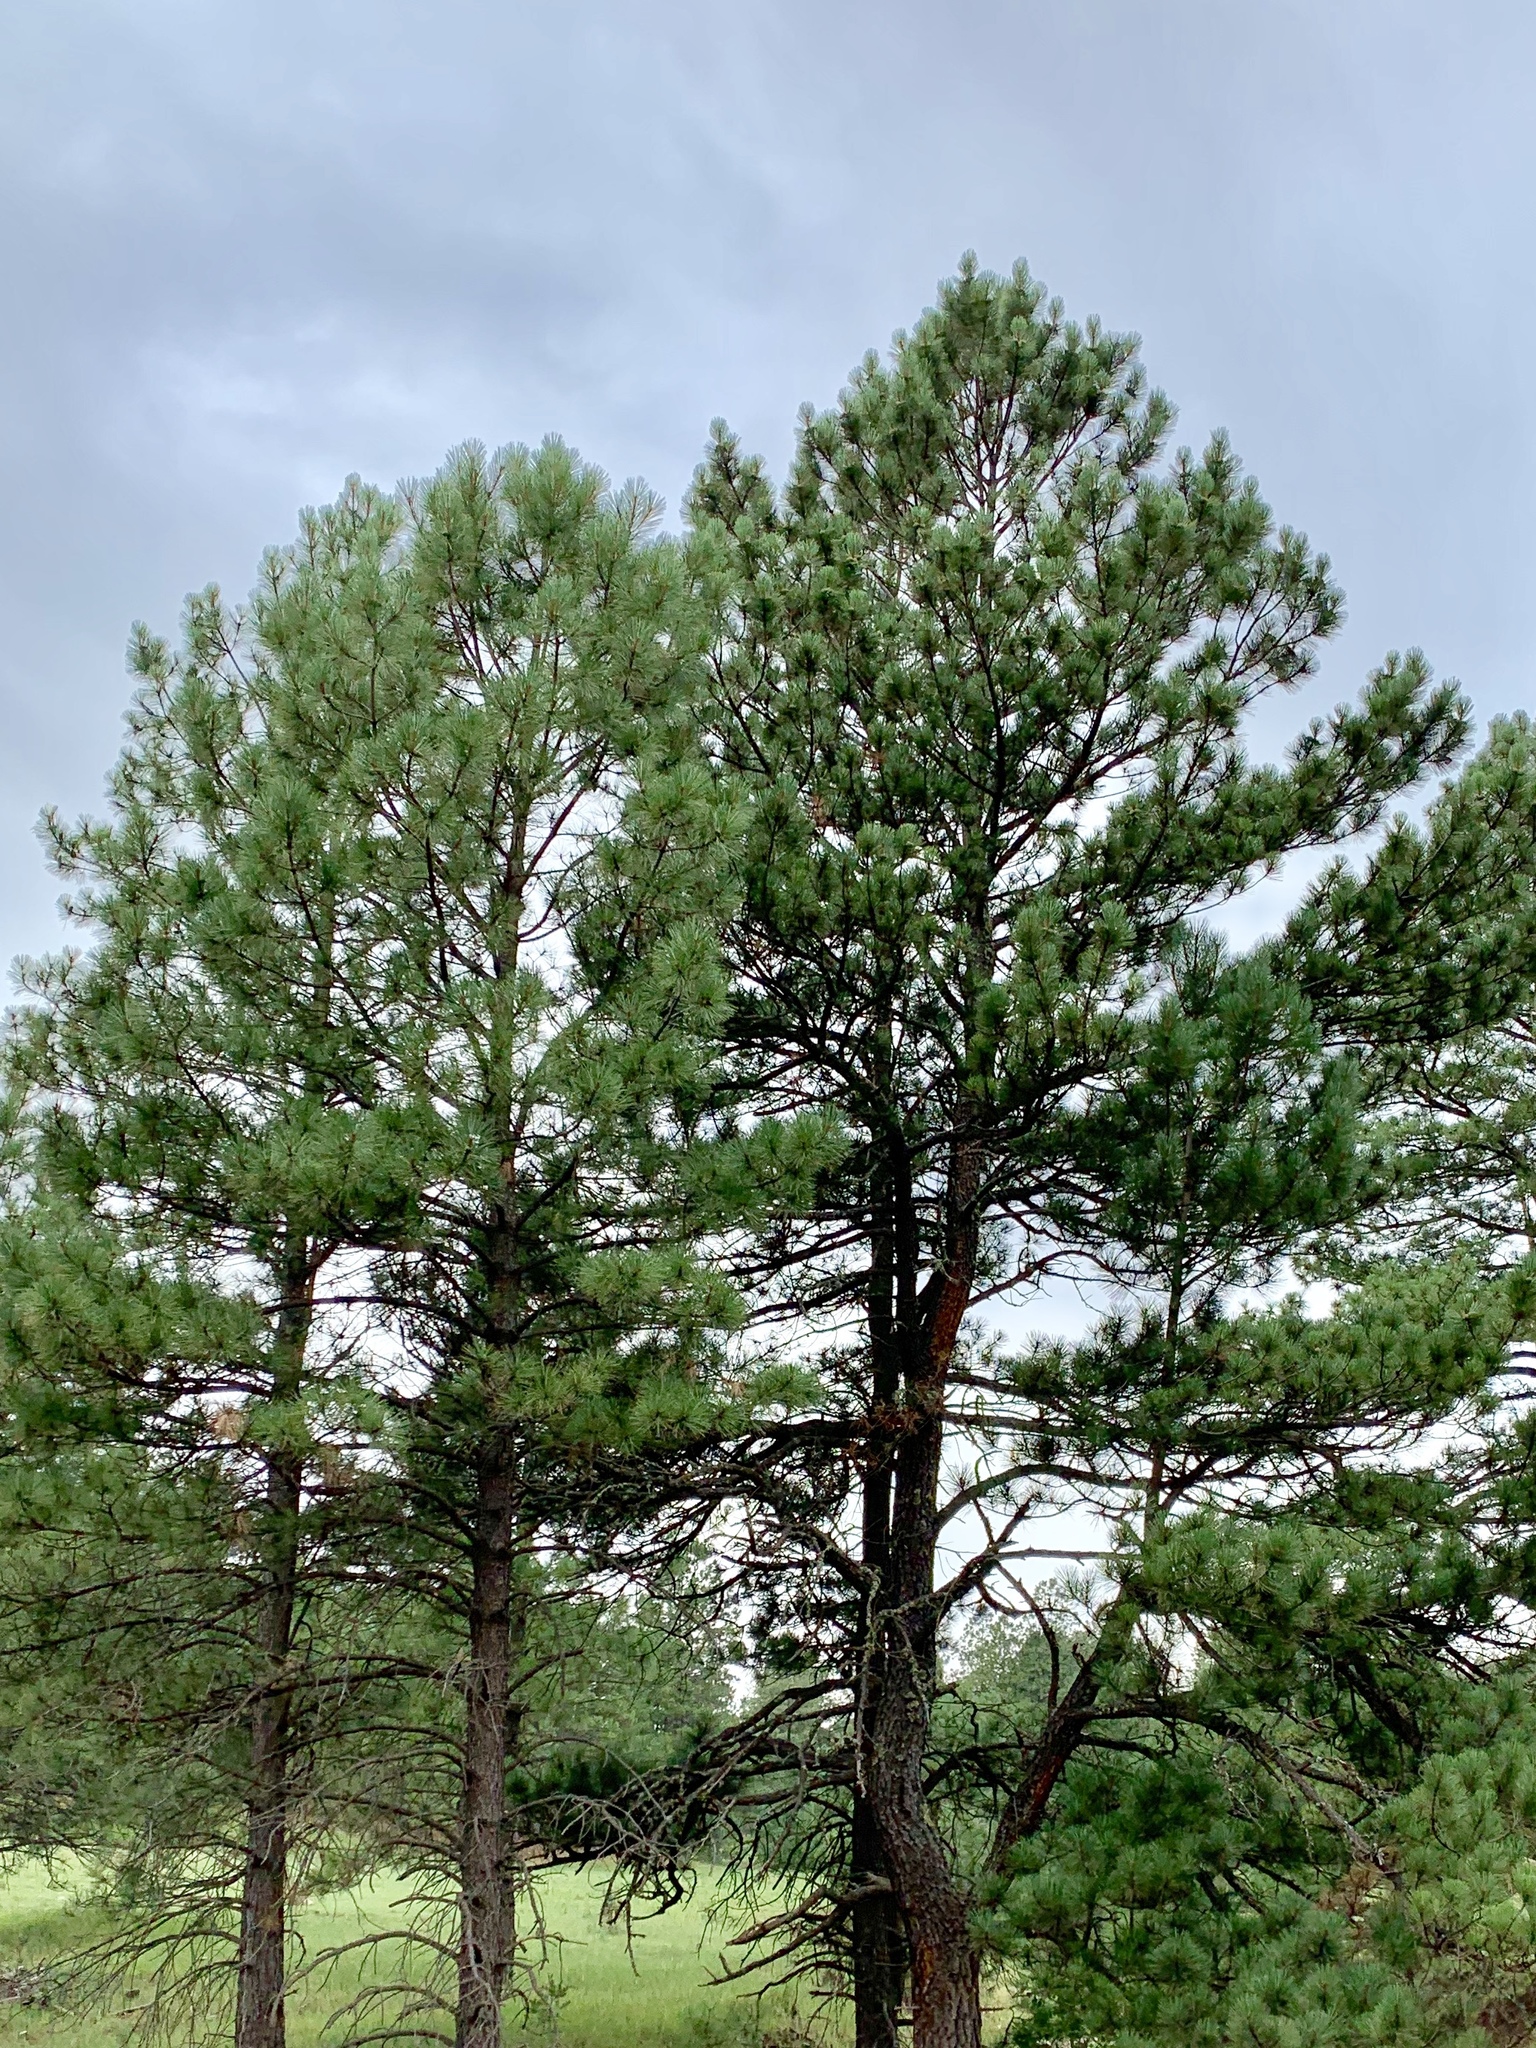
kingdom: Plantae
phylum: Tracheophyta
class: Pinopsida
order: Pinales
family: Pinaceae
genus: Pinus
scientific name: Pinus ponderosa
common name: Western yellow-pine
